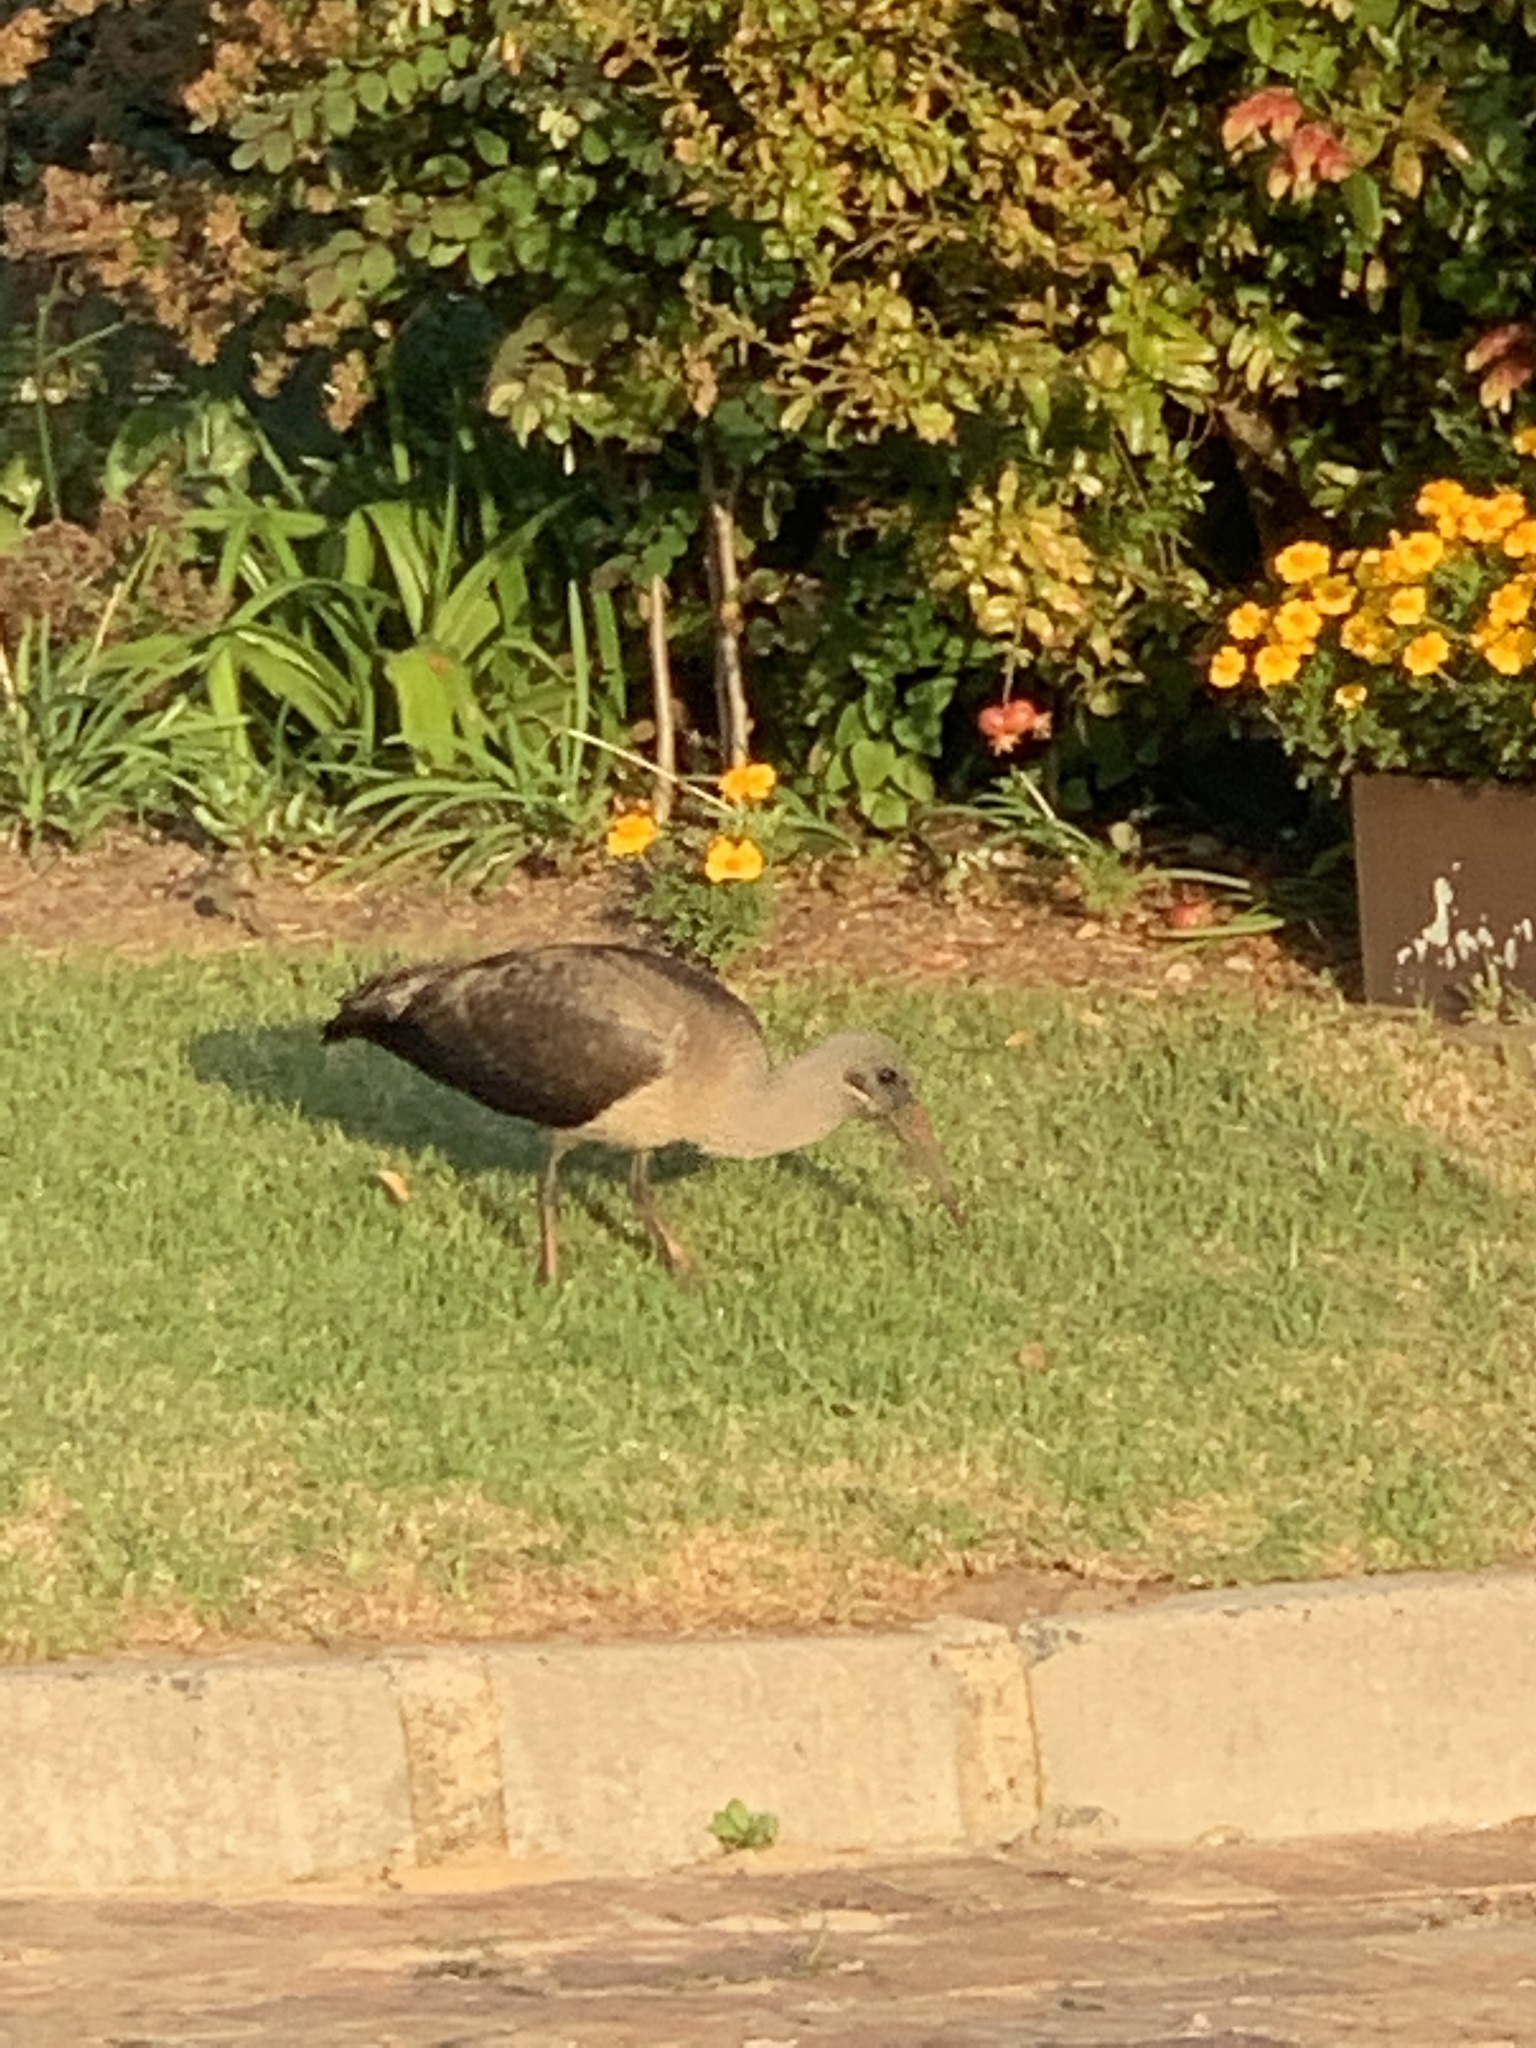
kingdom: Animalia
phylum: Chordata
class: Aves
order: Pelecaniformes
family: Threskiornithidae
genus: Bostrychia
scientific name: Bostrychia hagedash
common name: Hadada ibis
